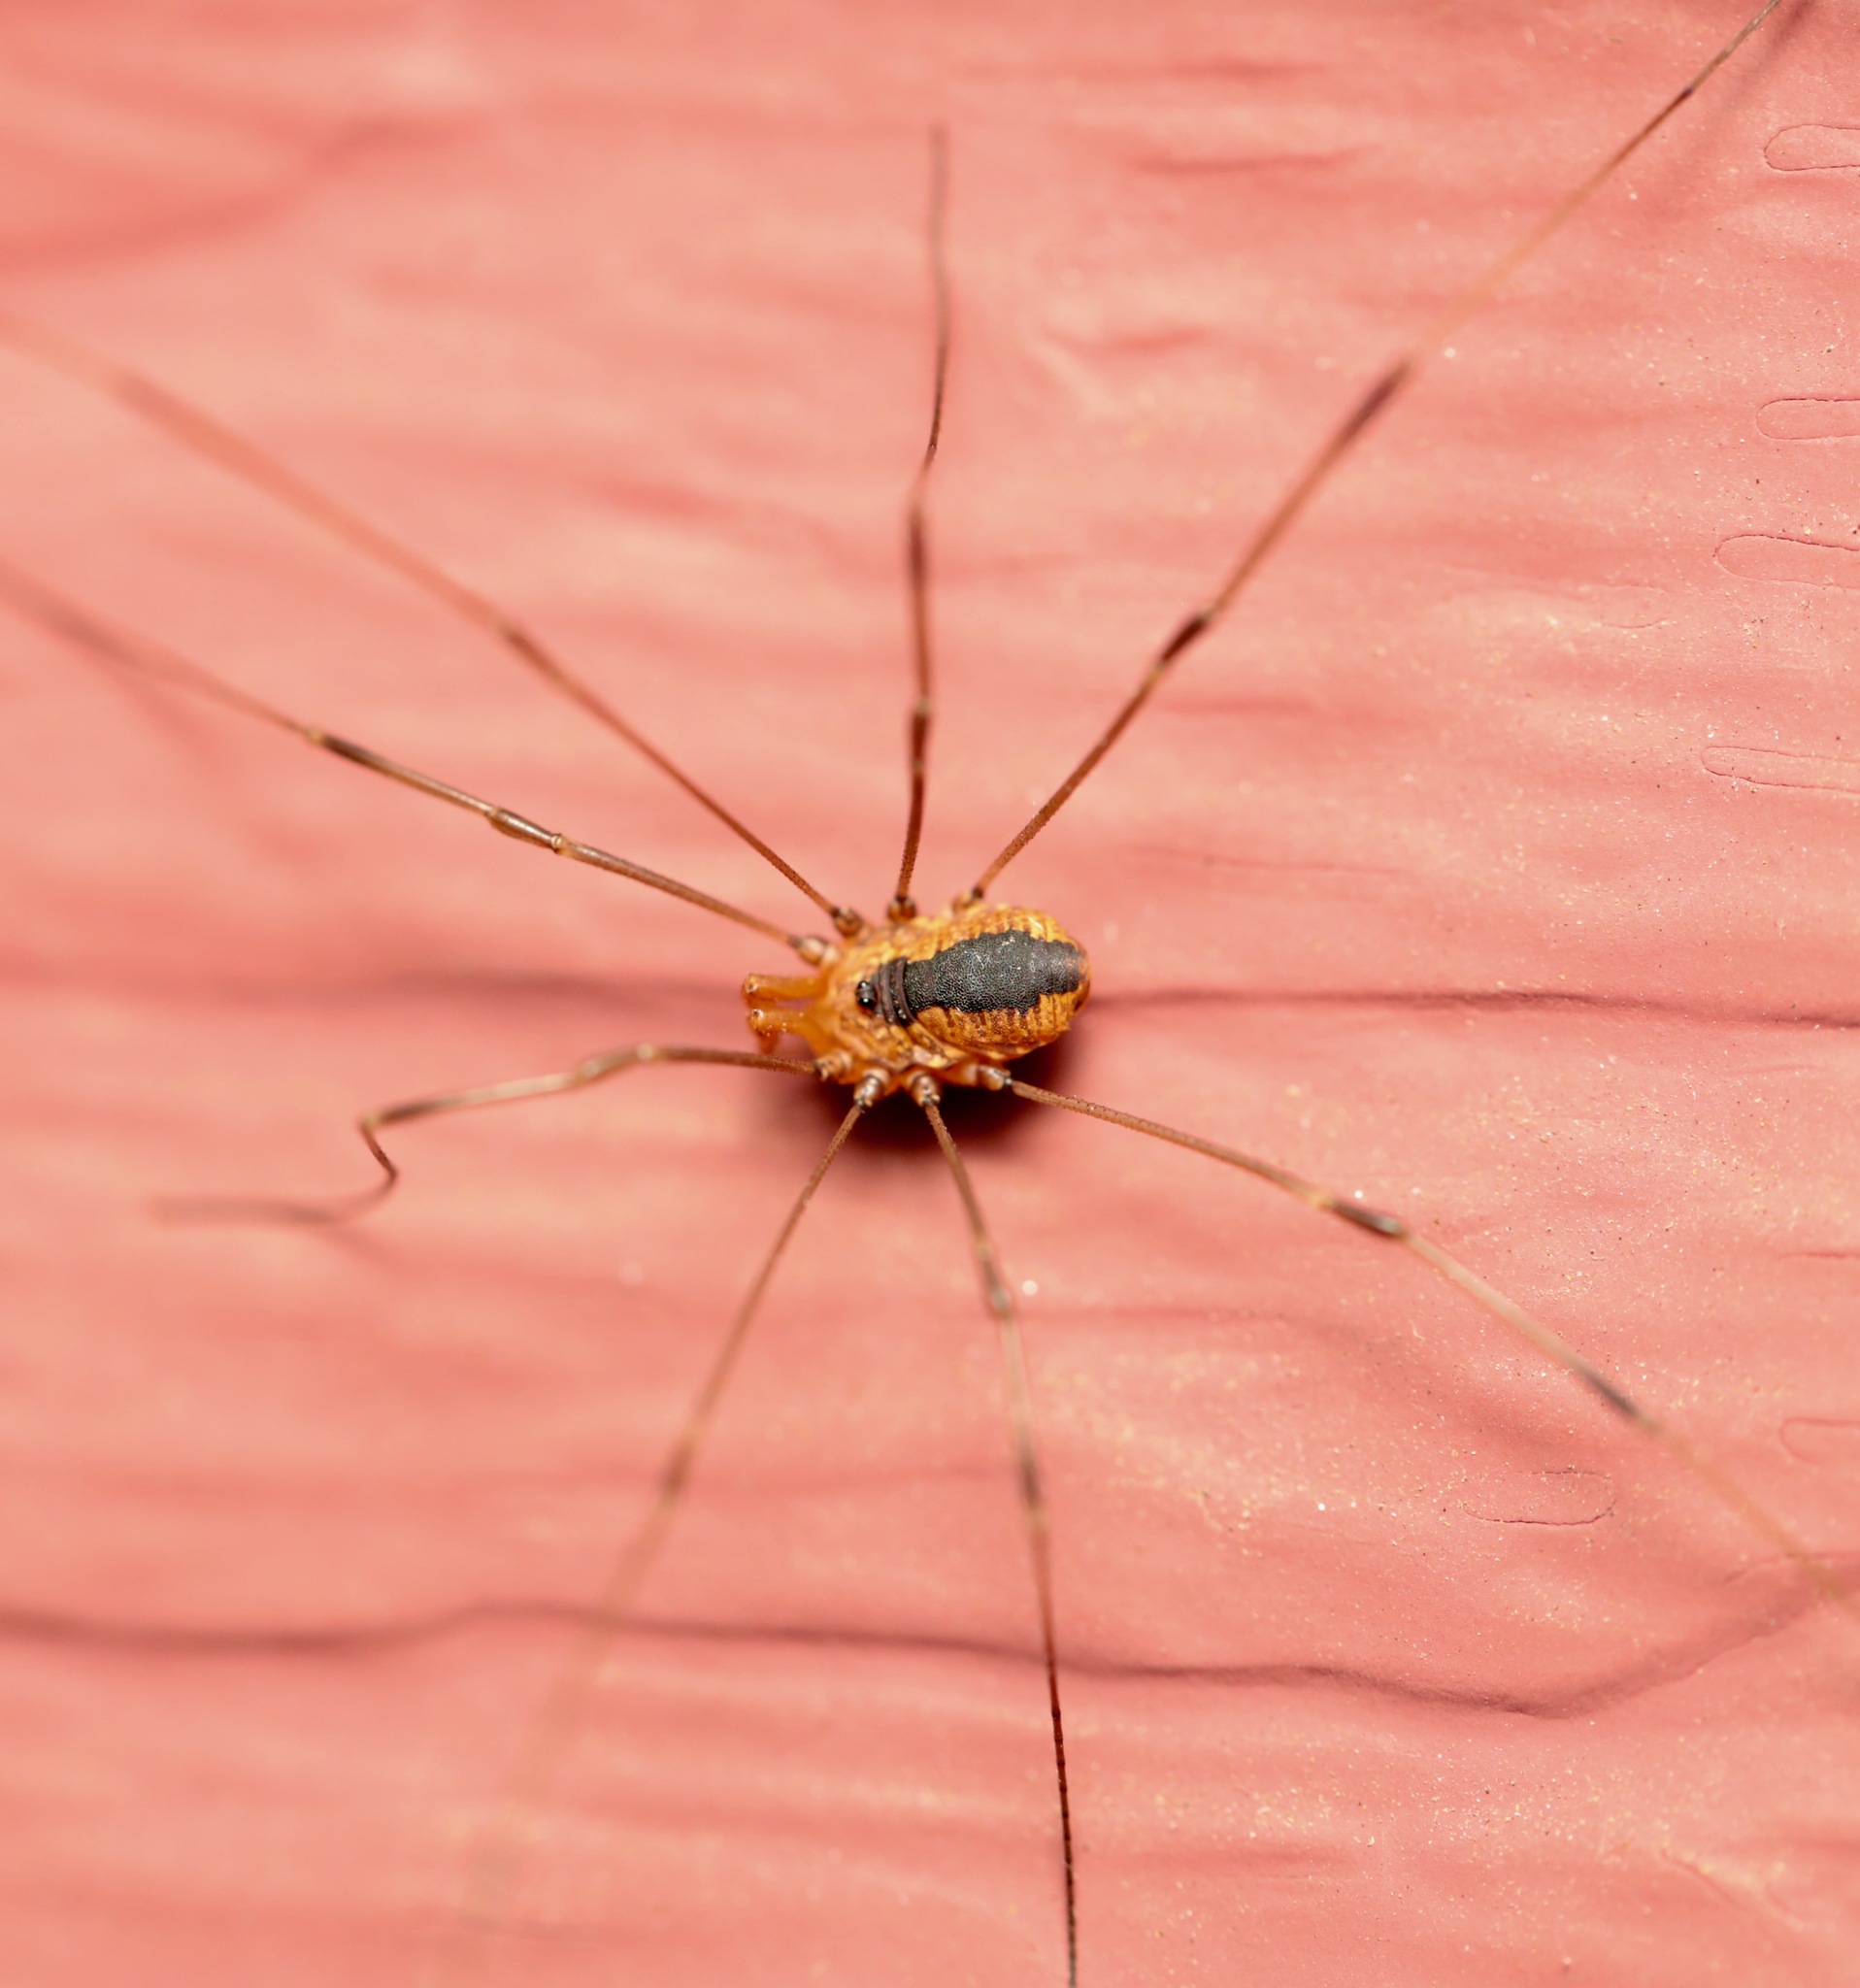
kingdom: Animalia
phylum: Arthropoda
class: Arachnida
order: Opiliones
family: Sclerosomatidae
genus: Leiobunum
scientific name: Leiobunum vittatum
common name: Eastern harvestman
